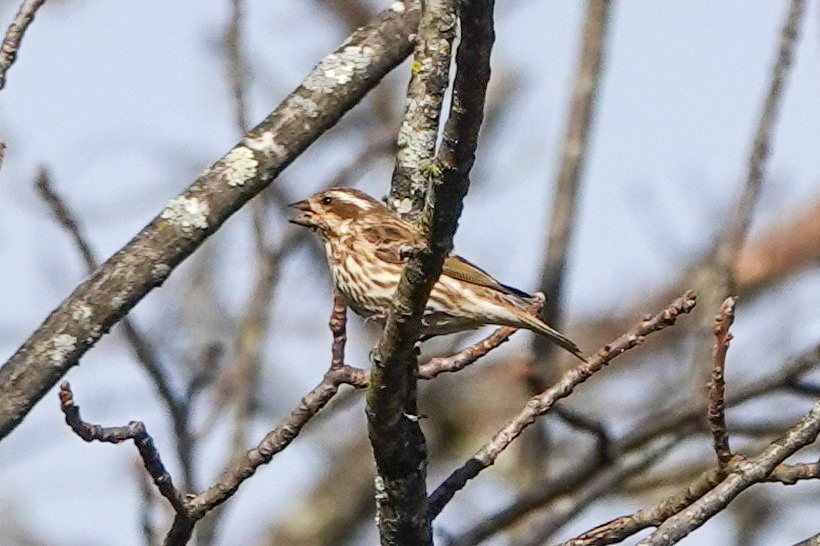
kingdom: Animalia
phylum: Chordata
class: Aves
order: Passeriformes
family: Fringillidae
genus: Haemorhous
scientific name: Haemorhous purpureus
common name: Purple finch
